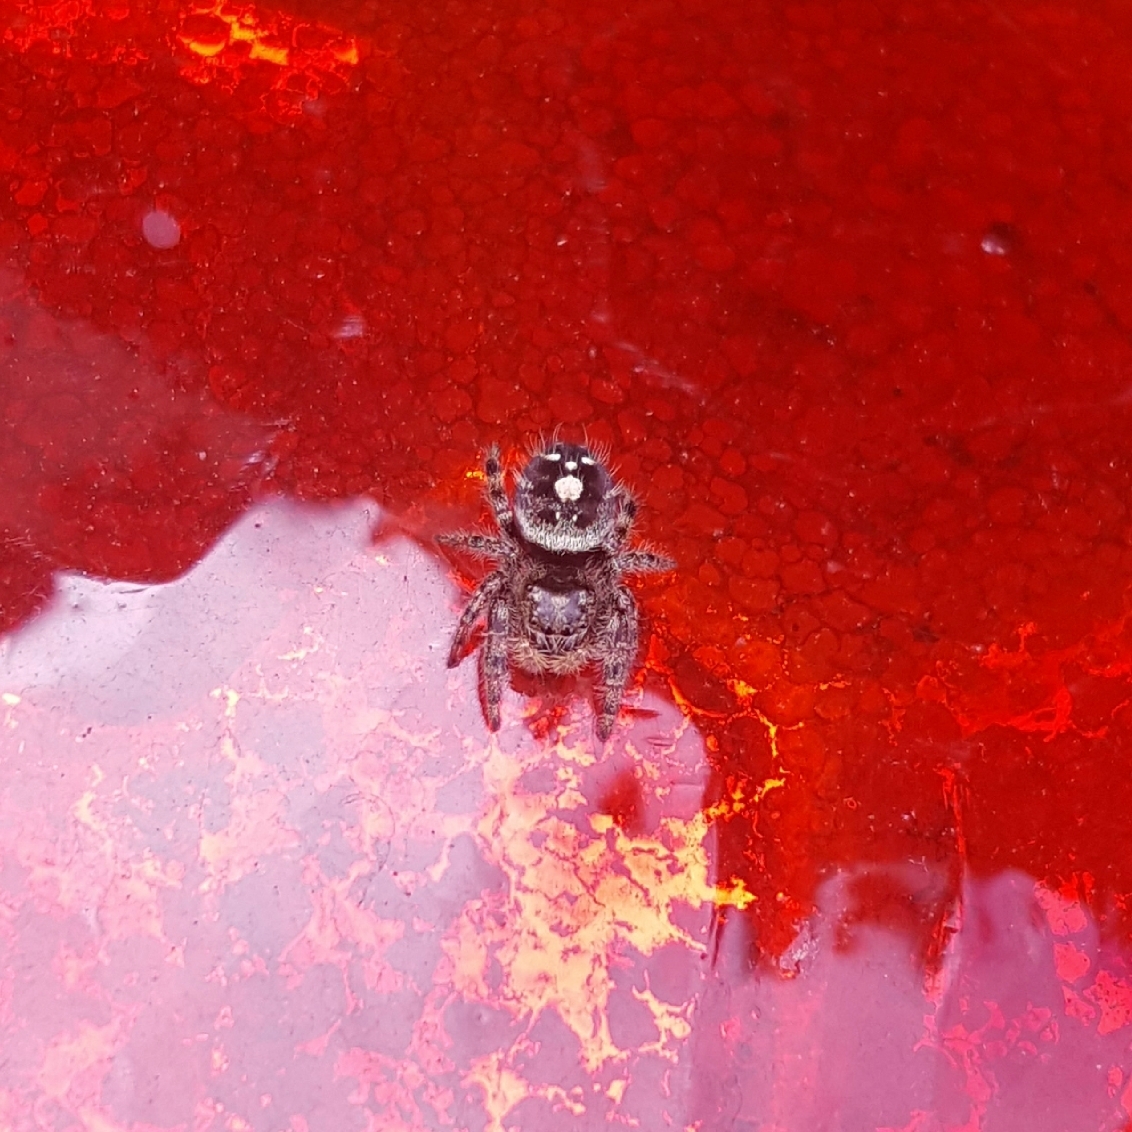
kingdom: Animalia
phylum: Arthropoda
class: Arachnida
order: Araneae
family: Salticidae
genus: Phidippus
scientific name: Phidippus audax
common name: Bold jumper
